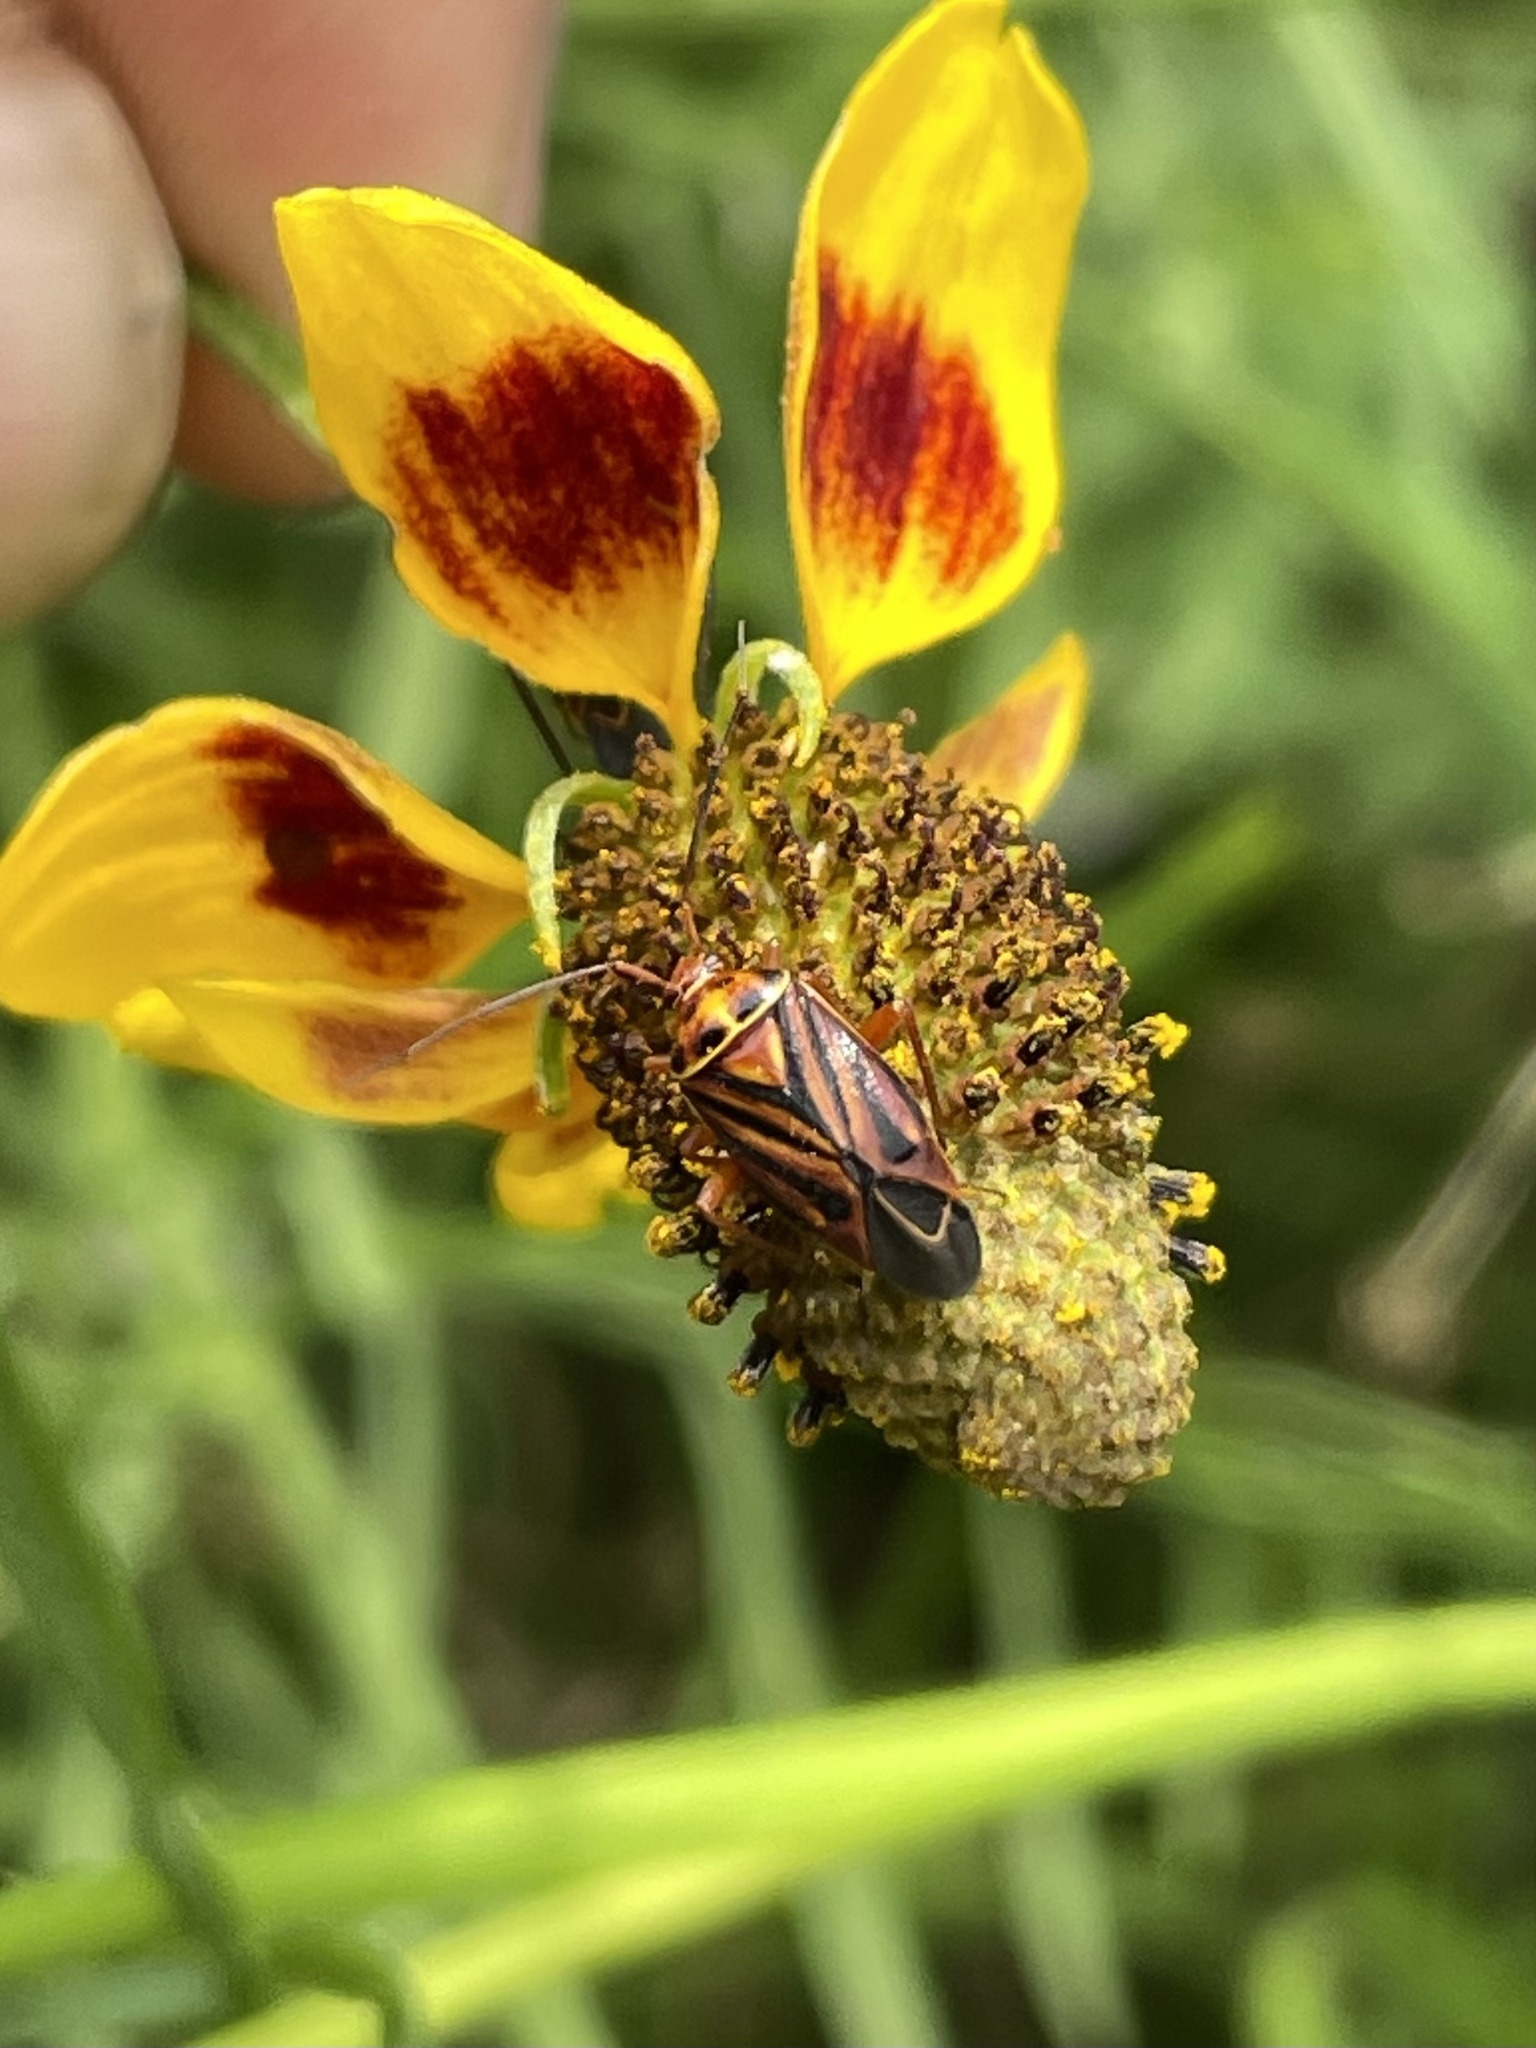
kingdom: Animalia
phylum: Arthropoda
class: Insecta
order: Hemiptera
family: Miridae
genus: Calocoris
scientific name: Calocoris barberi
